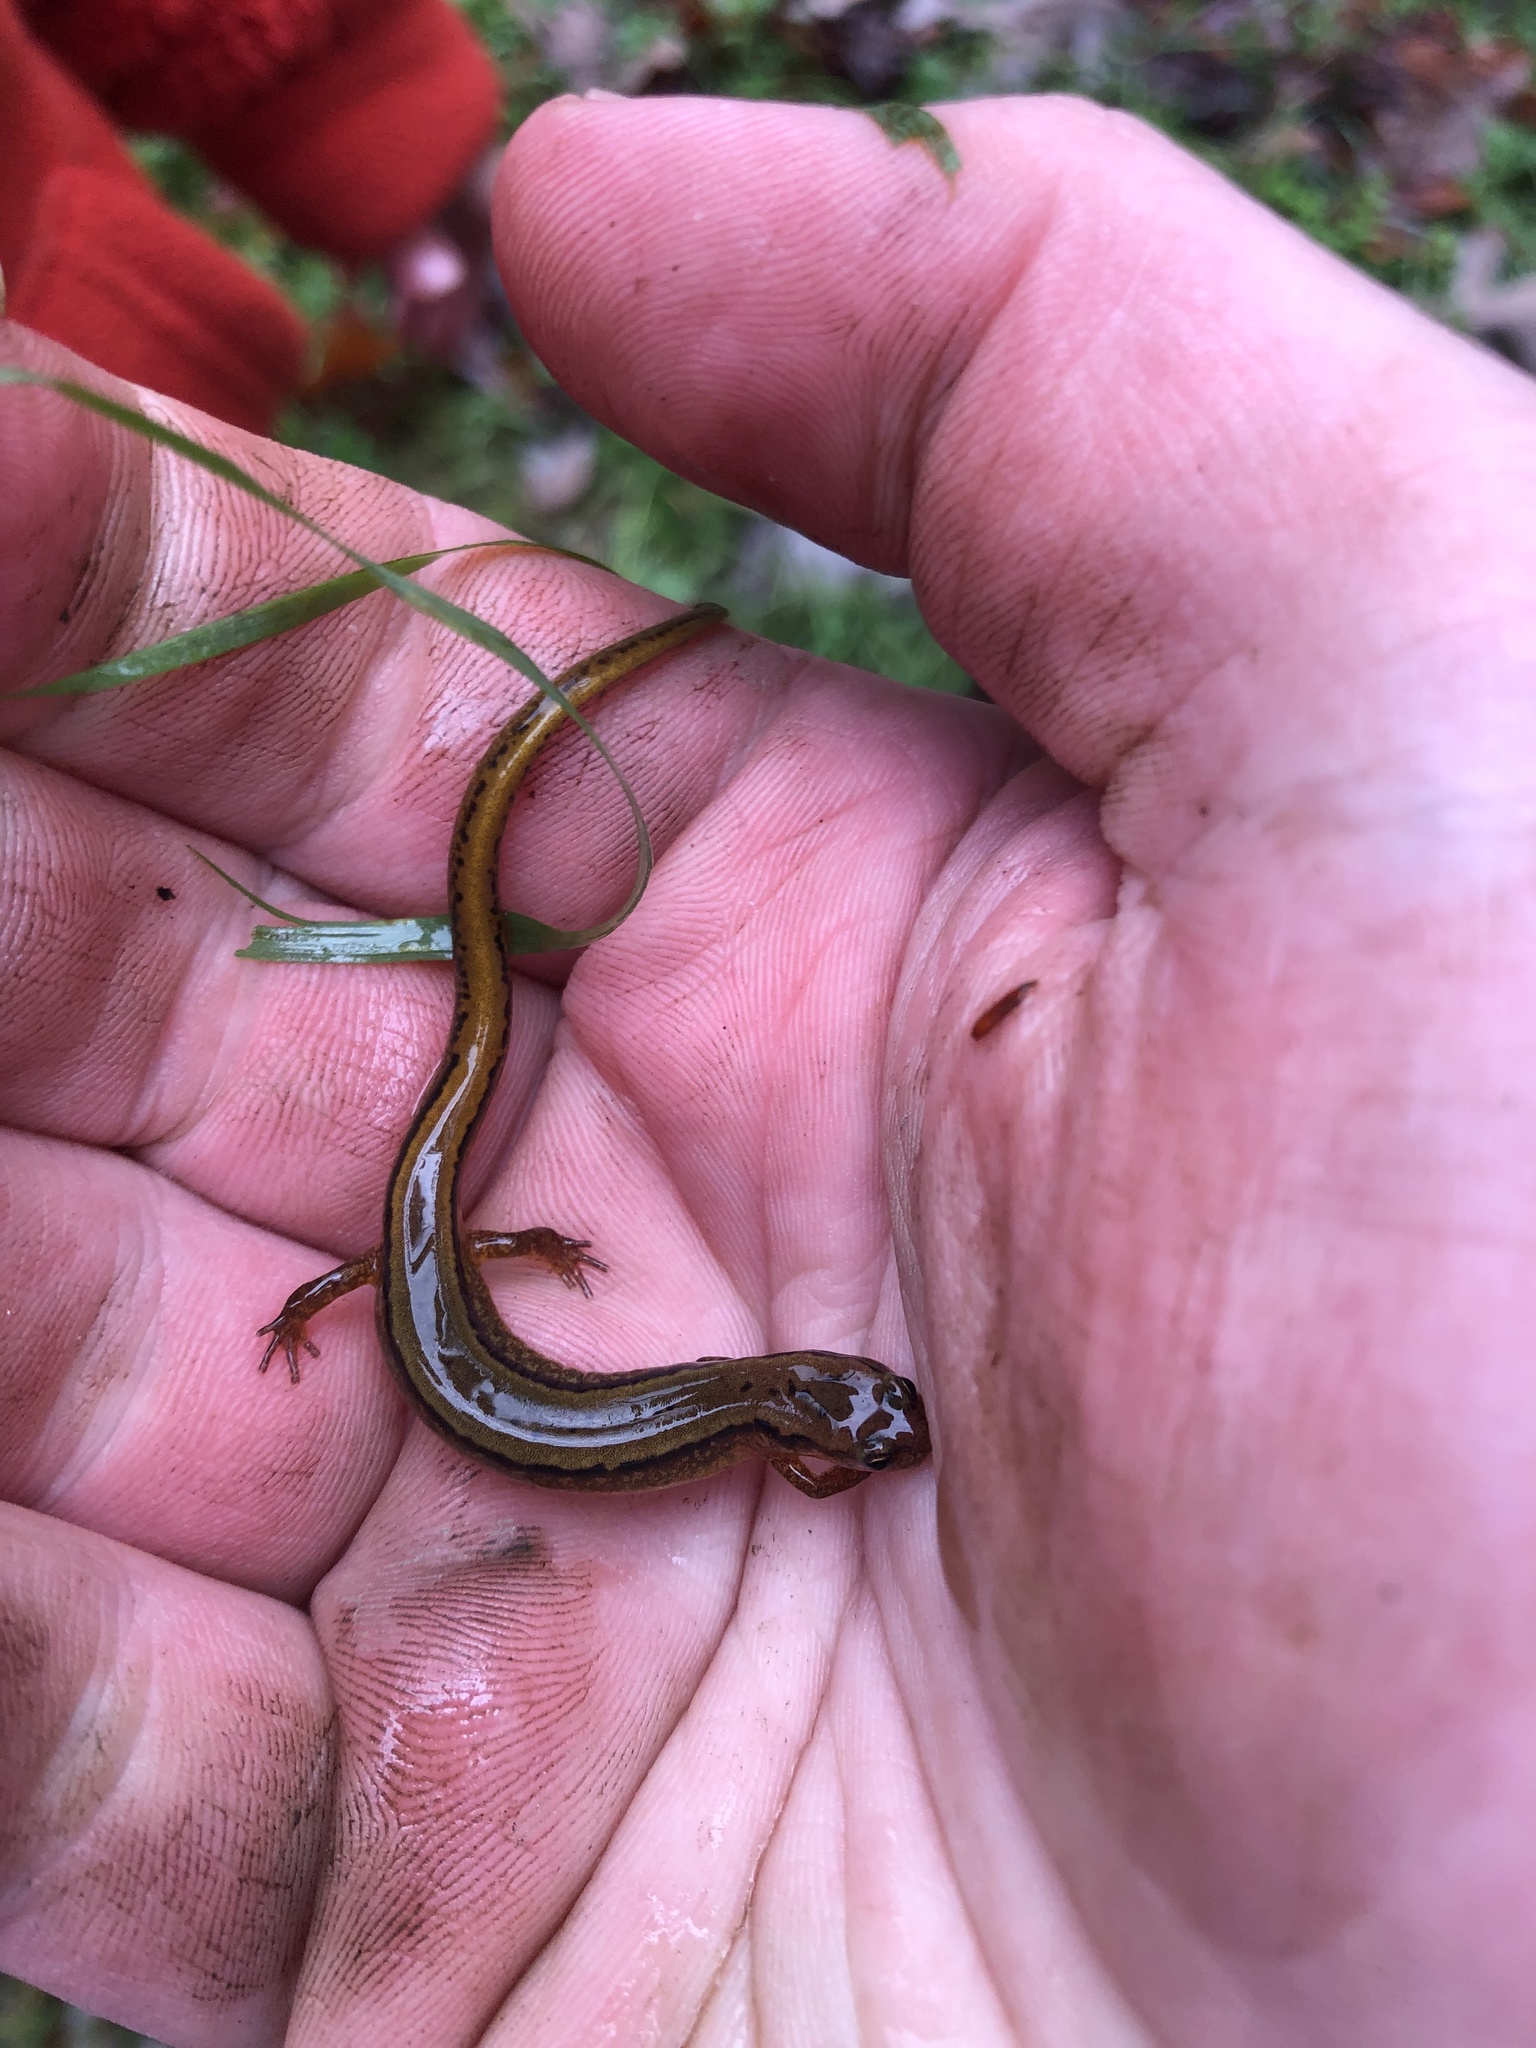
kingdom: Animalia
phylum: Chordata
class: Amphibia
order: Caudata
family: Plethodontidae
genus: Eurycea
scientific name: Eurycea cirrigera
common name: Southern two-lined salamander
